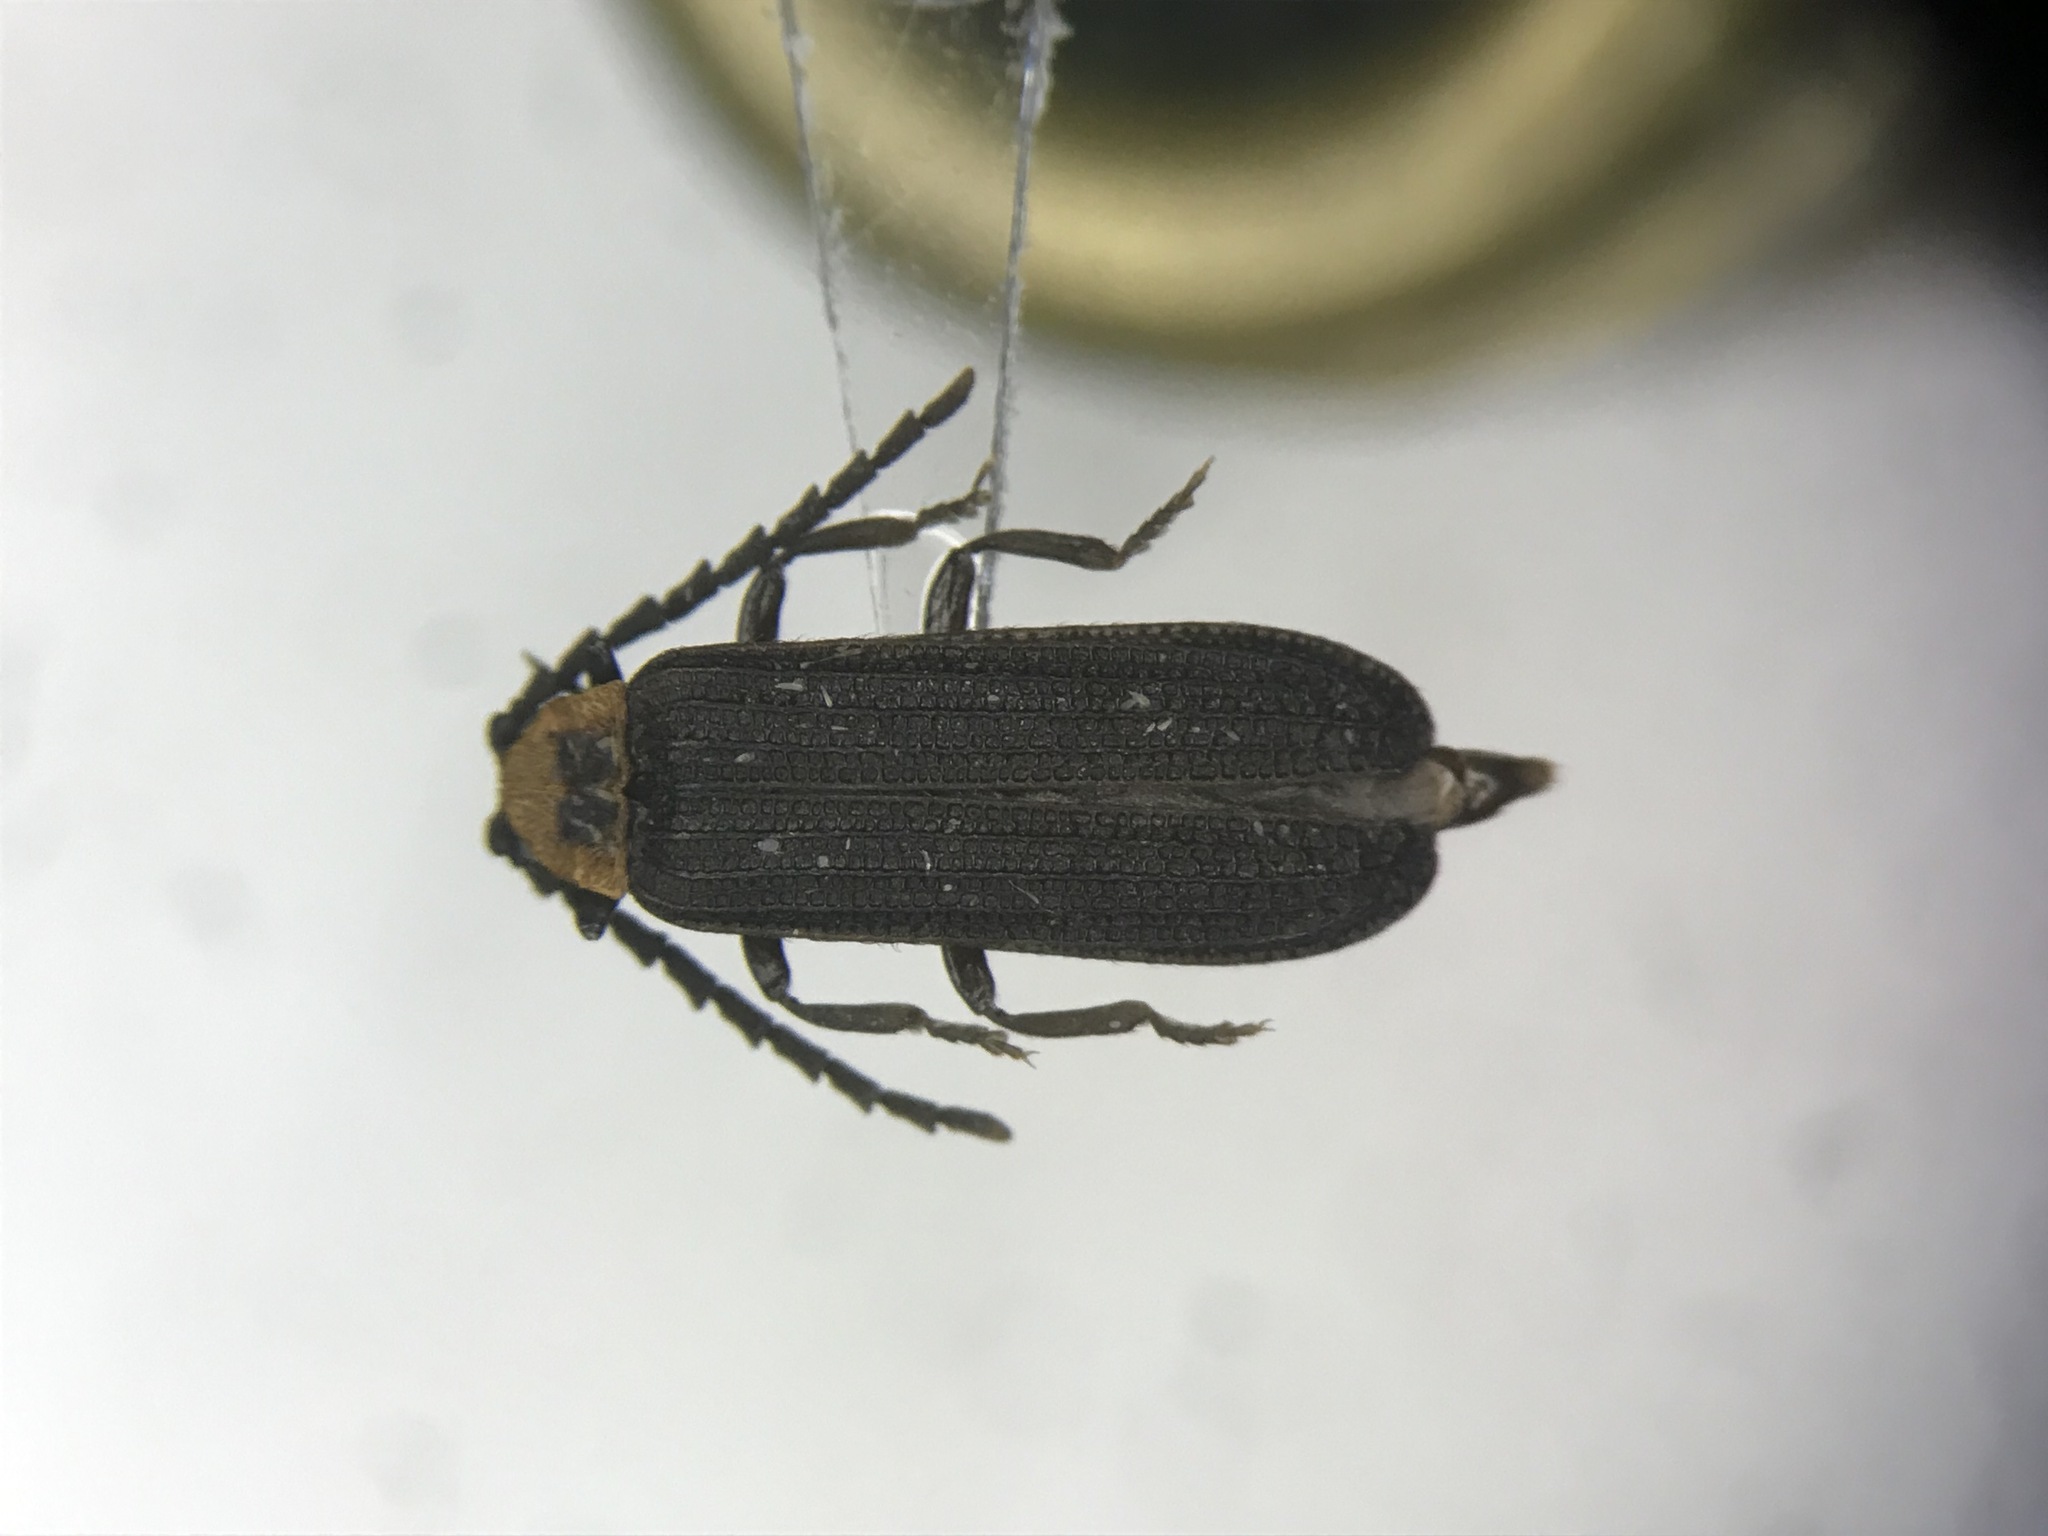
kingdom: Animalia
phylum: Arthropoda
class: Insecta
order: Coleoptera
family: Lycidae
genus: Lopheros
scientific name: Lopheros crenatus
